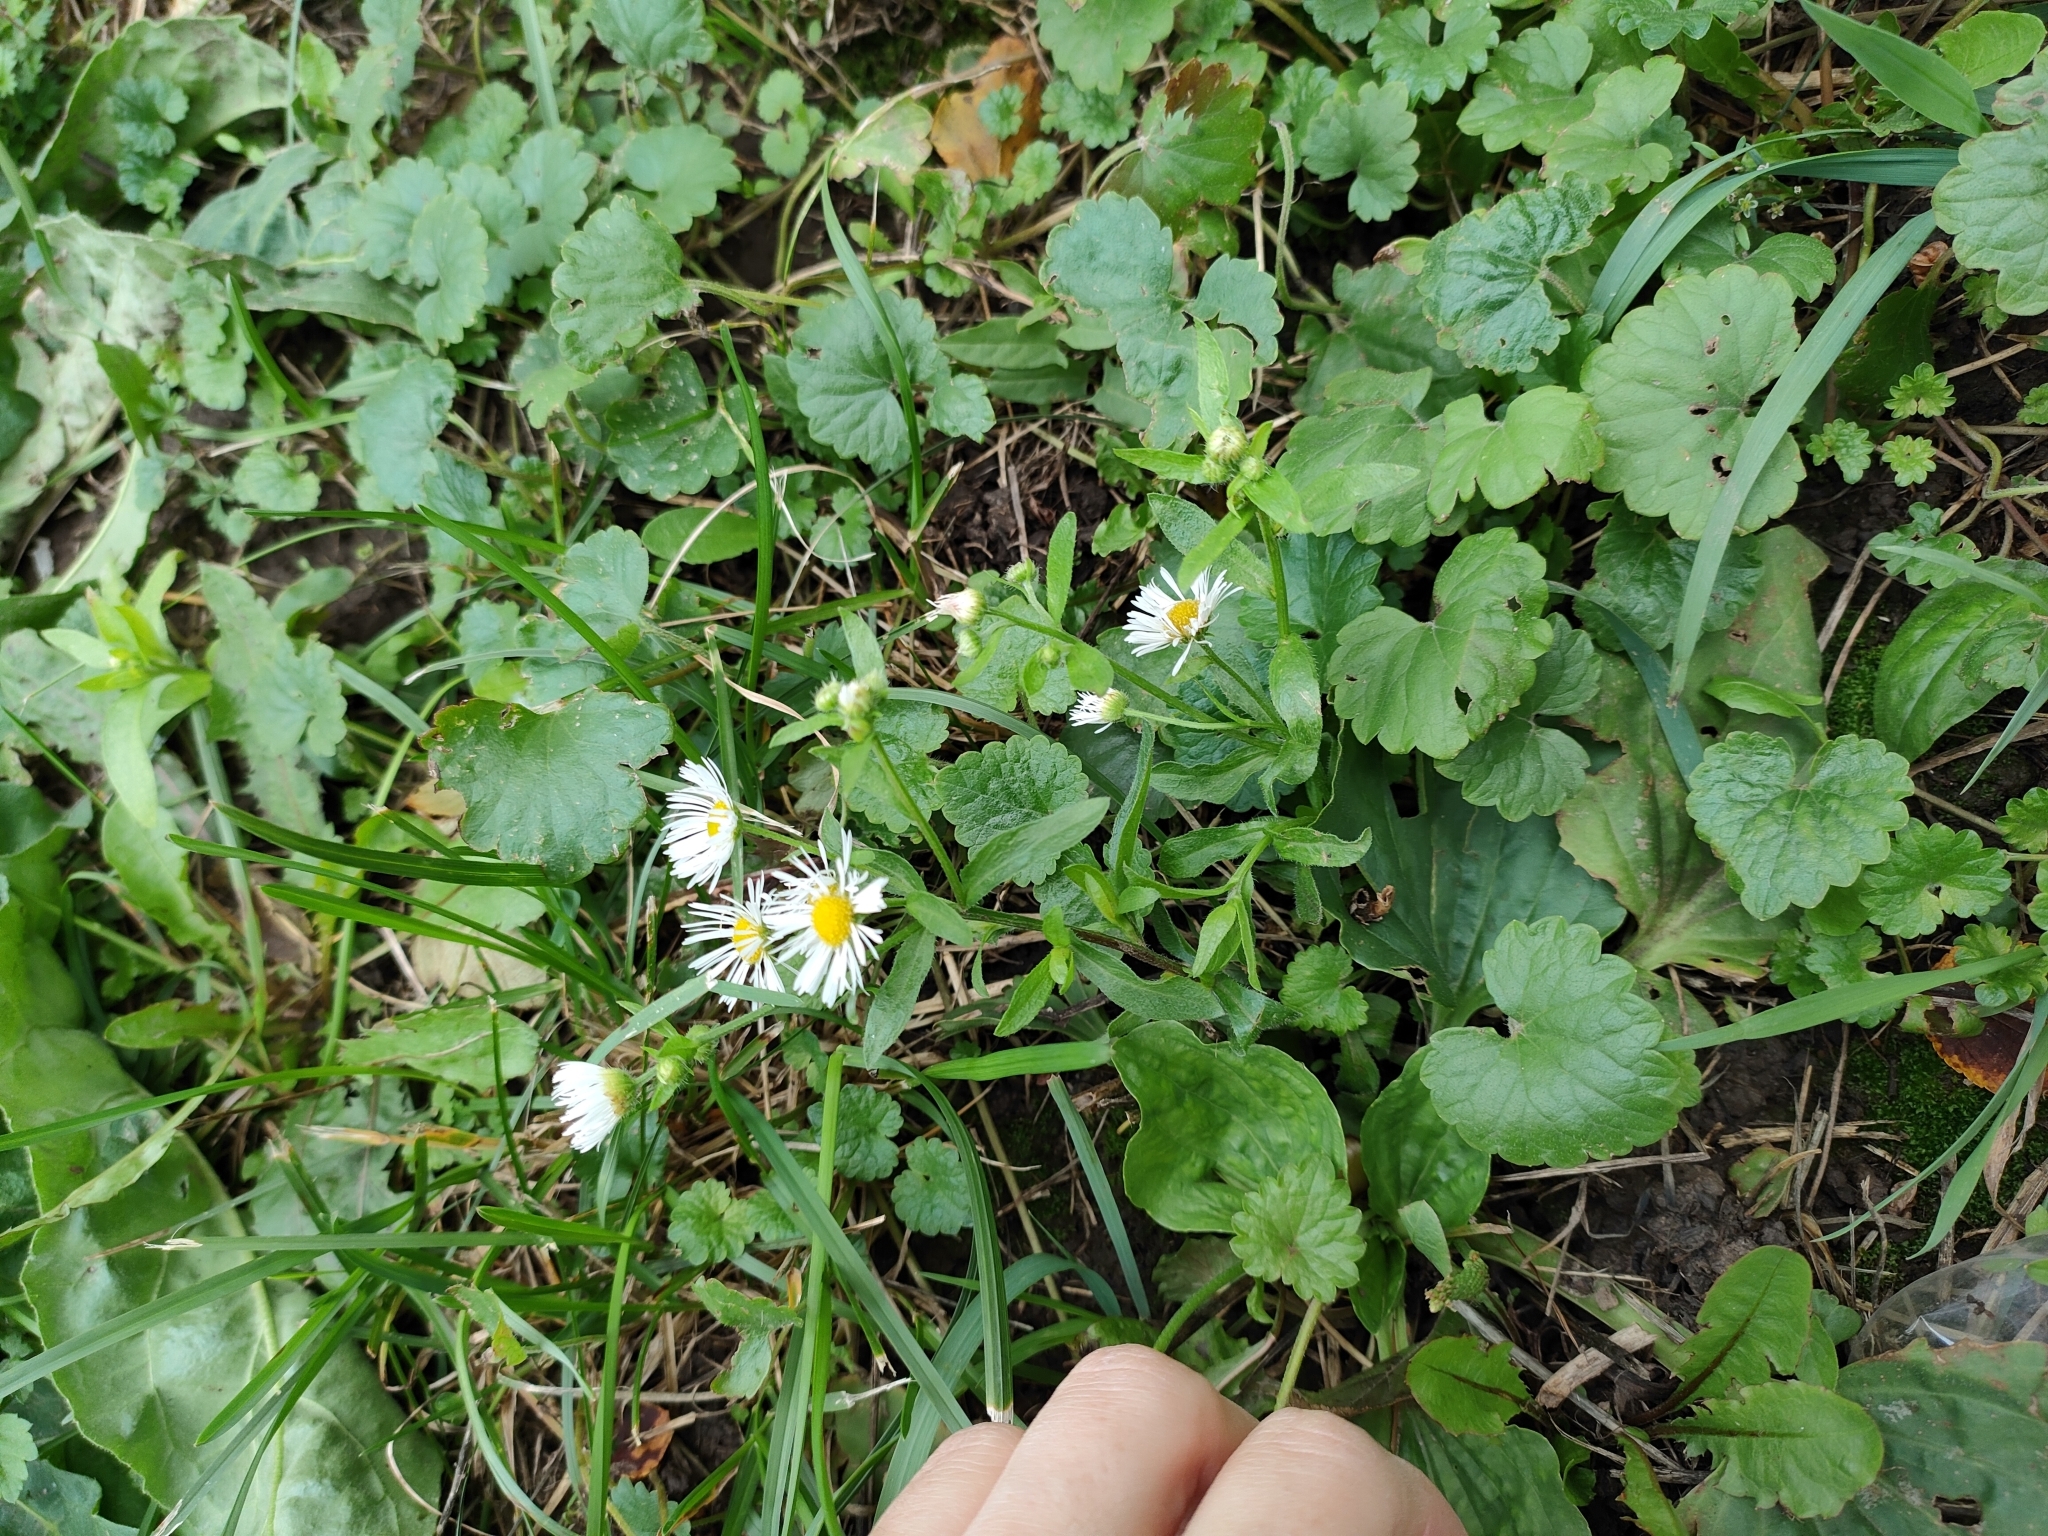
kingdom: Plantae
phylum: Tracheophyta
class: Magnoliopsida
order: Asterales
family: Asteraceae
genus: Erigeron
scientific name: Erigeron annuus
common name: Tall fleabane
